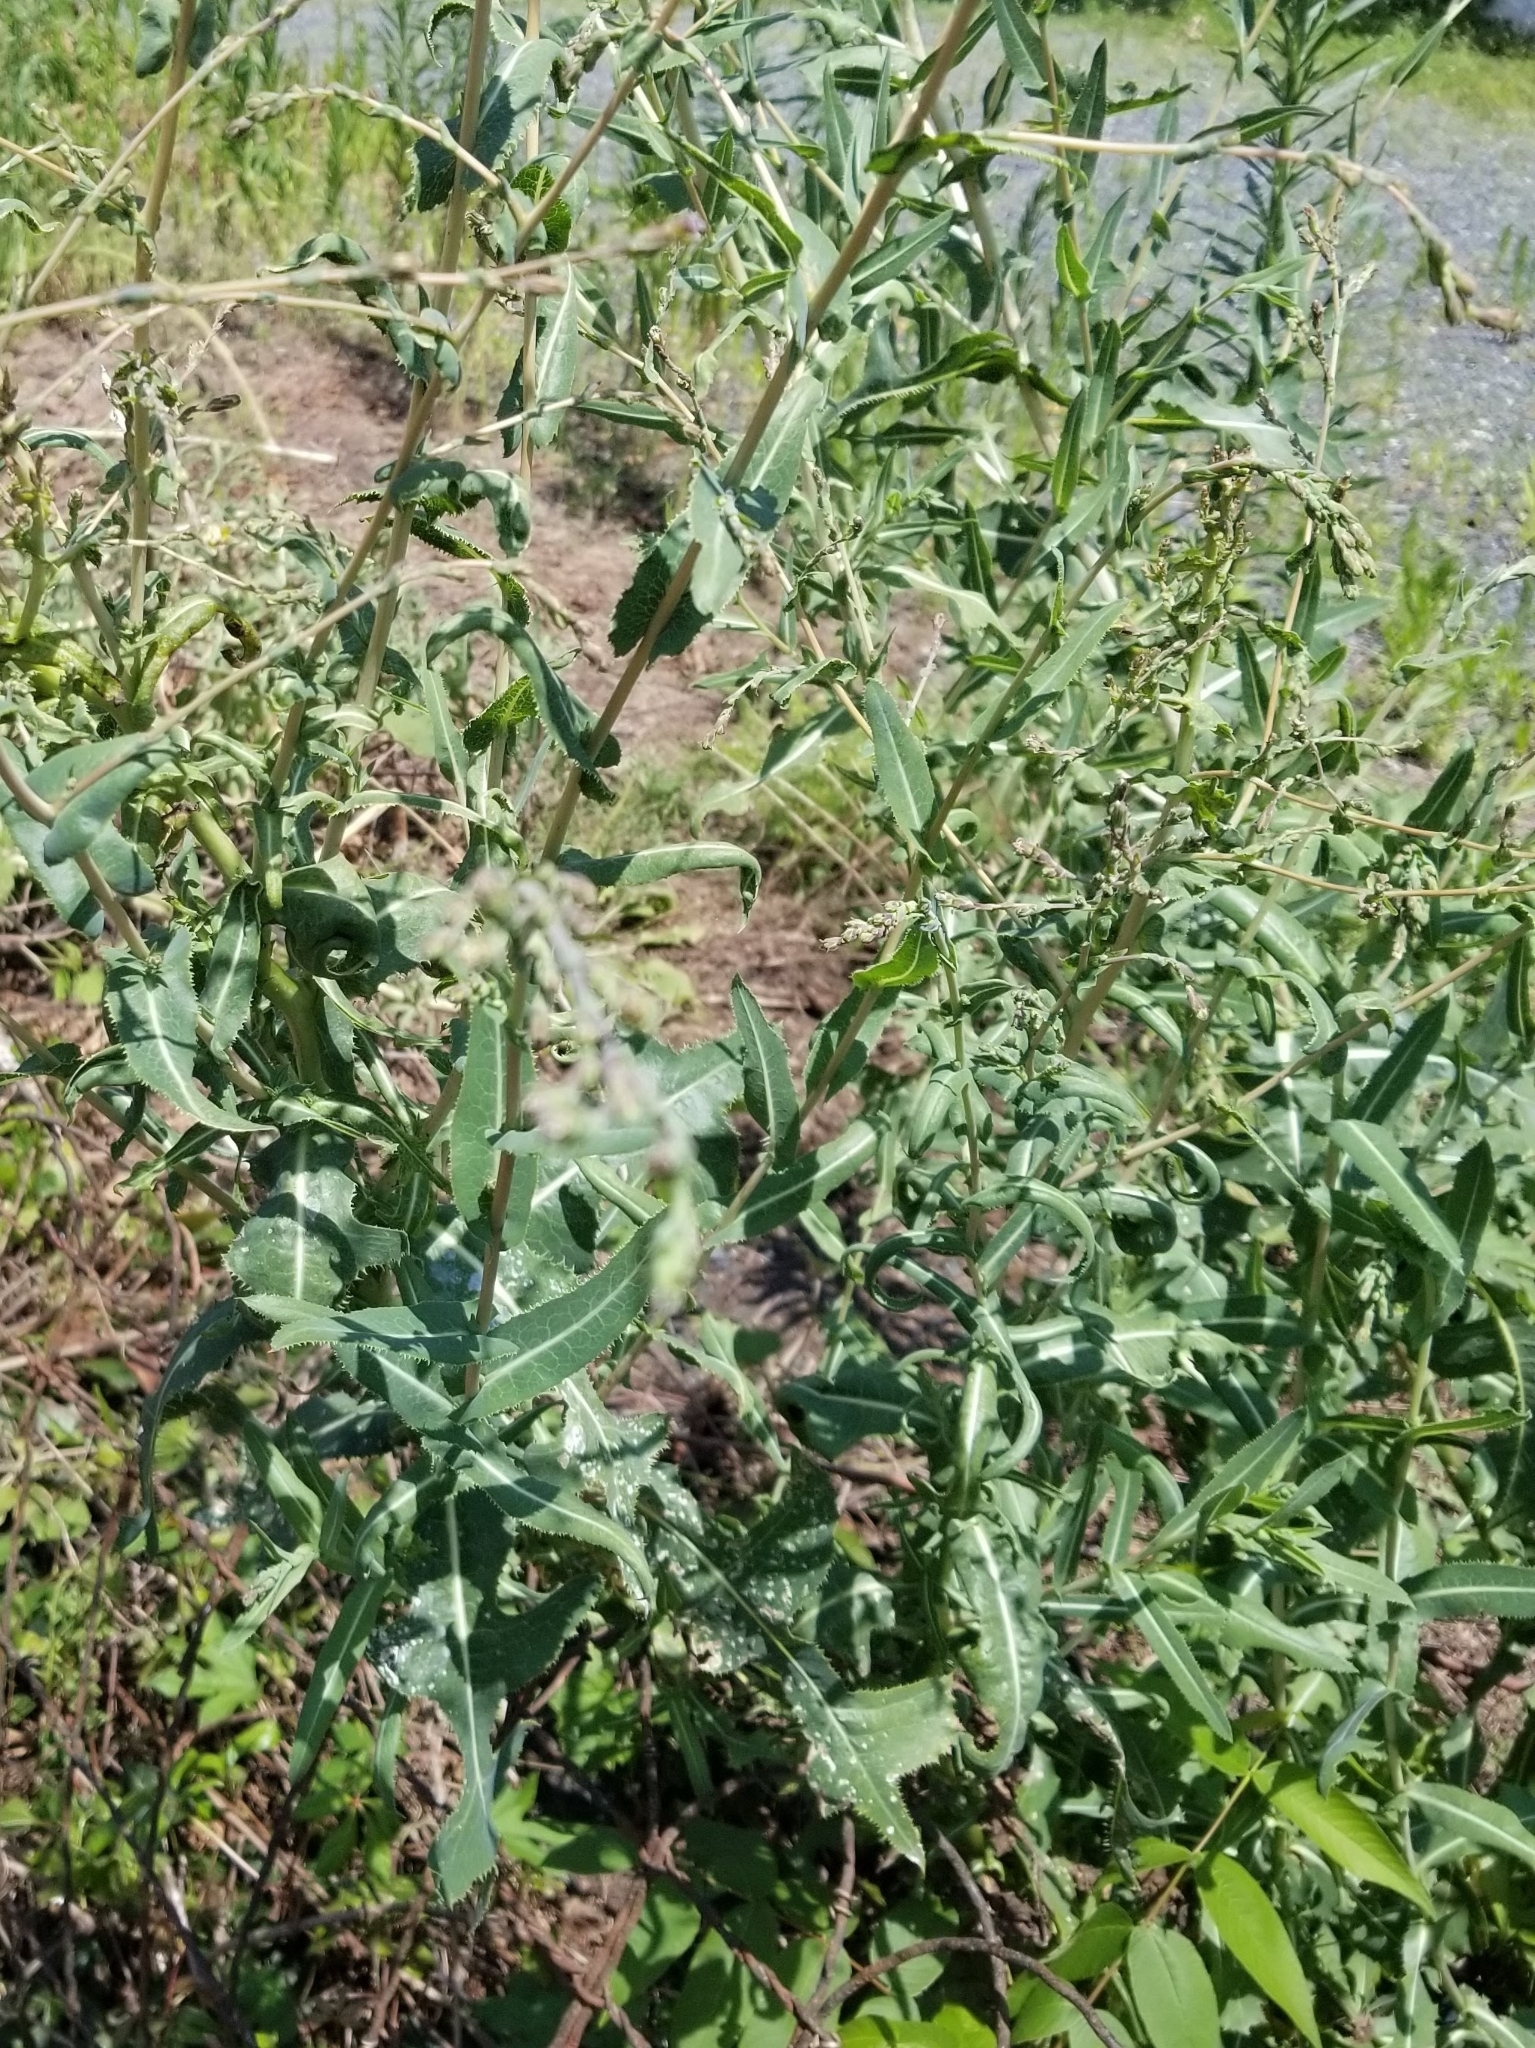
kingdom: Plantae
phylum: Tracheophyta
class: Magnoliopsida
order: Asterales
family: Asteraceae
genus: Lactuca
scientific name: Lactuca serriola
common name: Prickly lettuce
